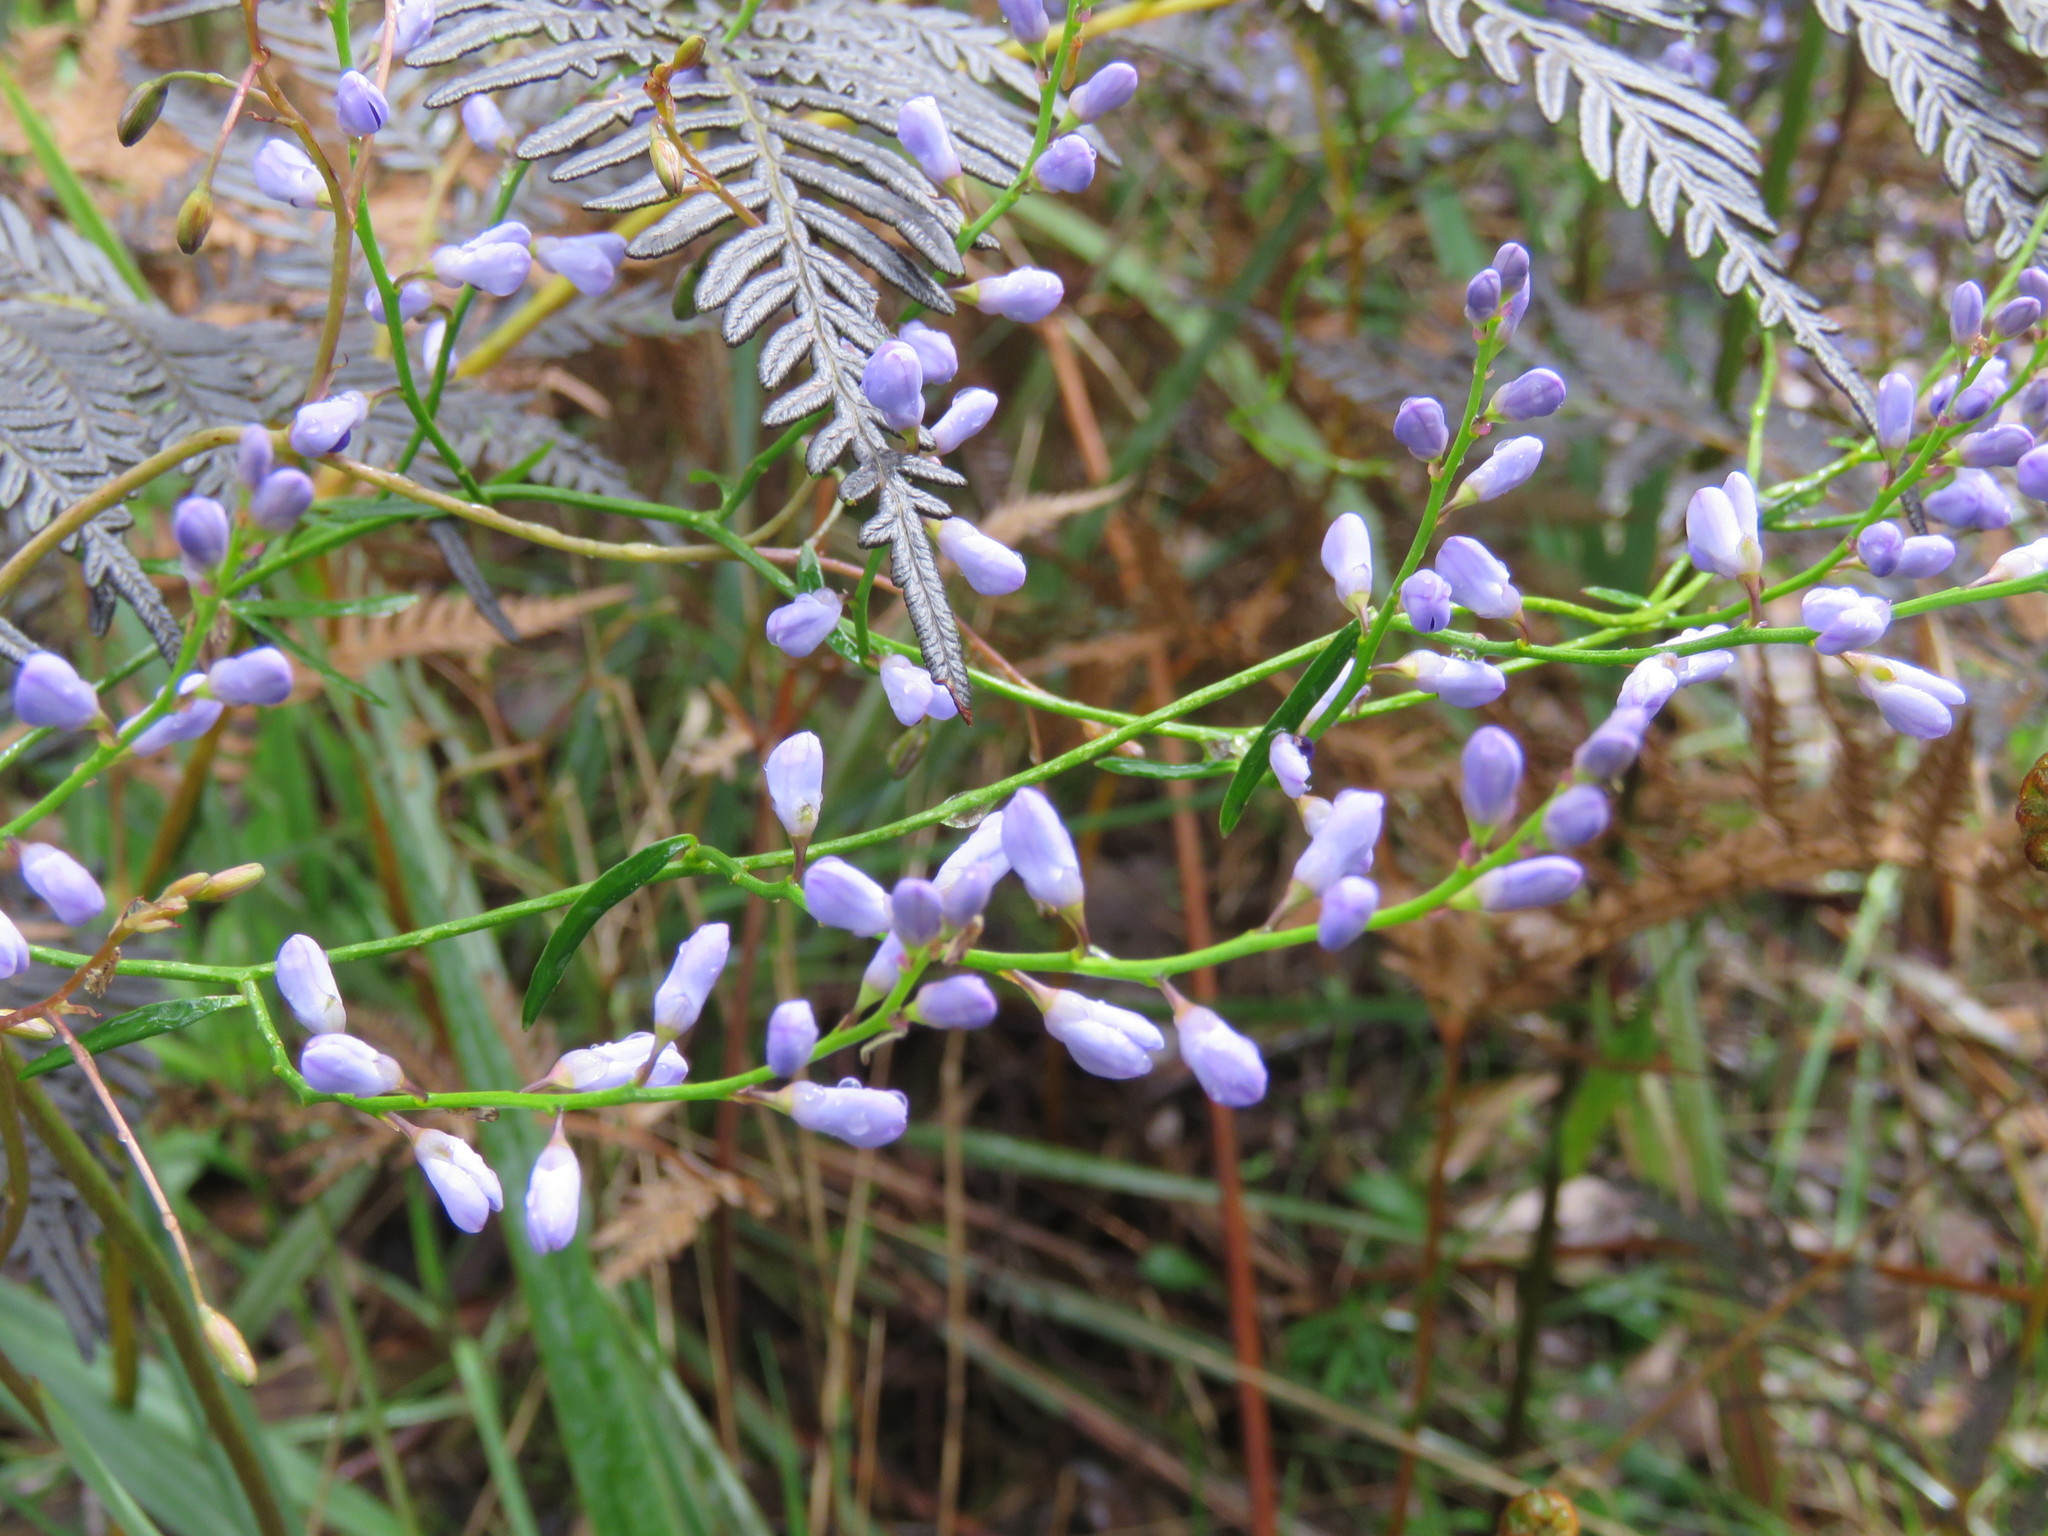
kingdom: Plantae
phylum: Tracheophyta
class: Magnoliopsida
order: Fabales
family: Polygalaceae
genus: Comesperma
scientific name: Comesperma volubile
